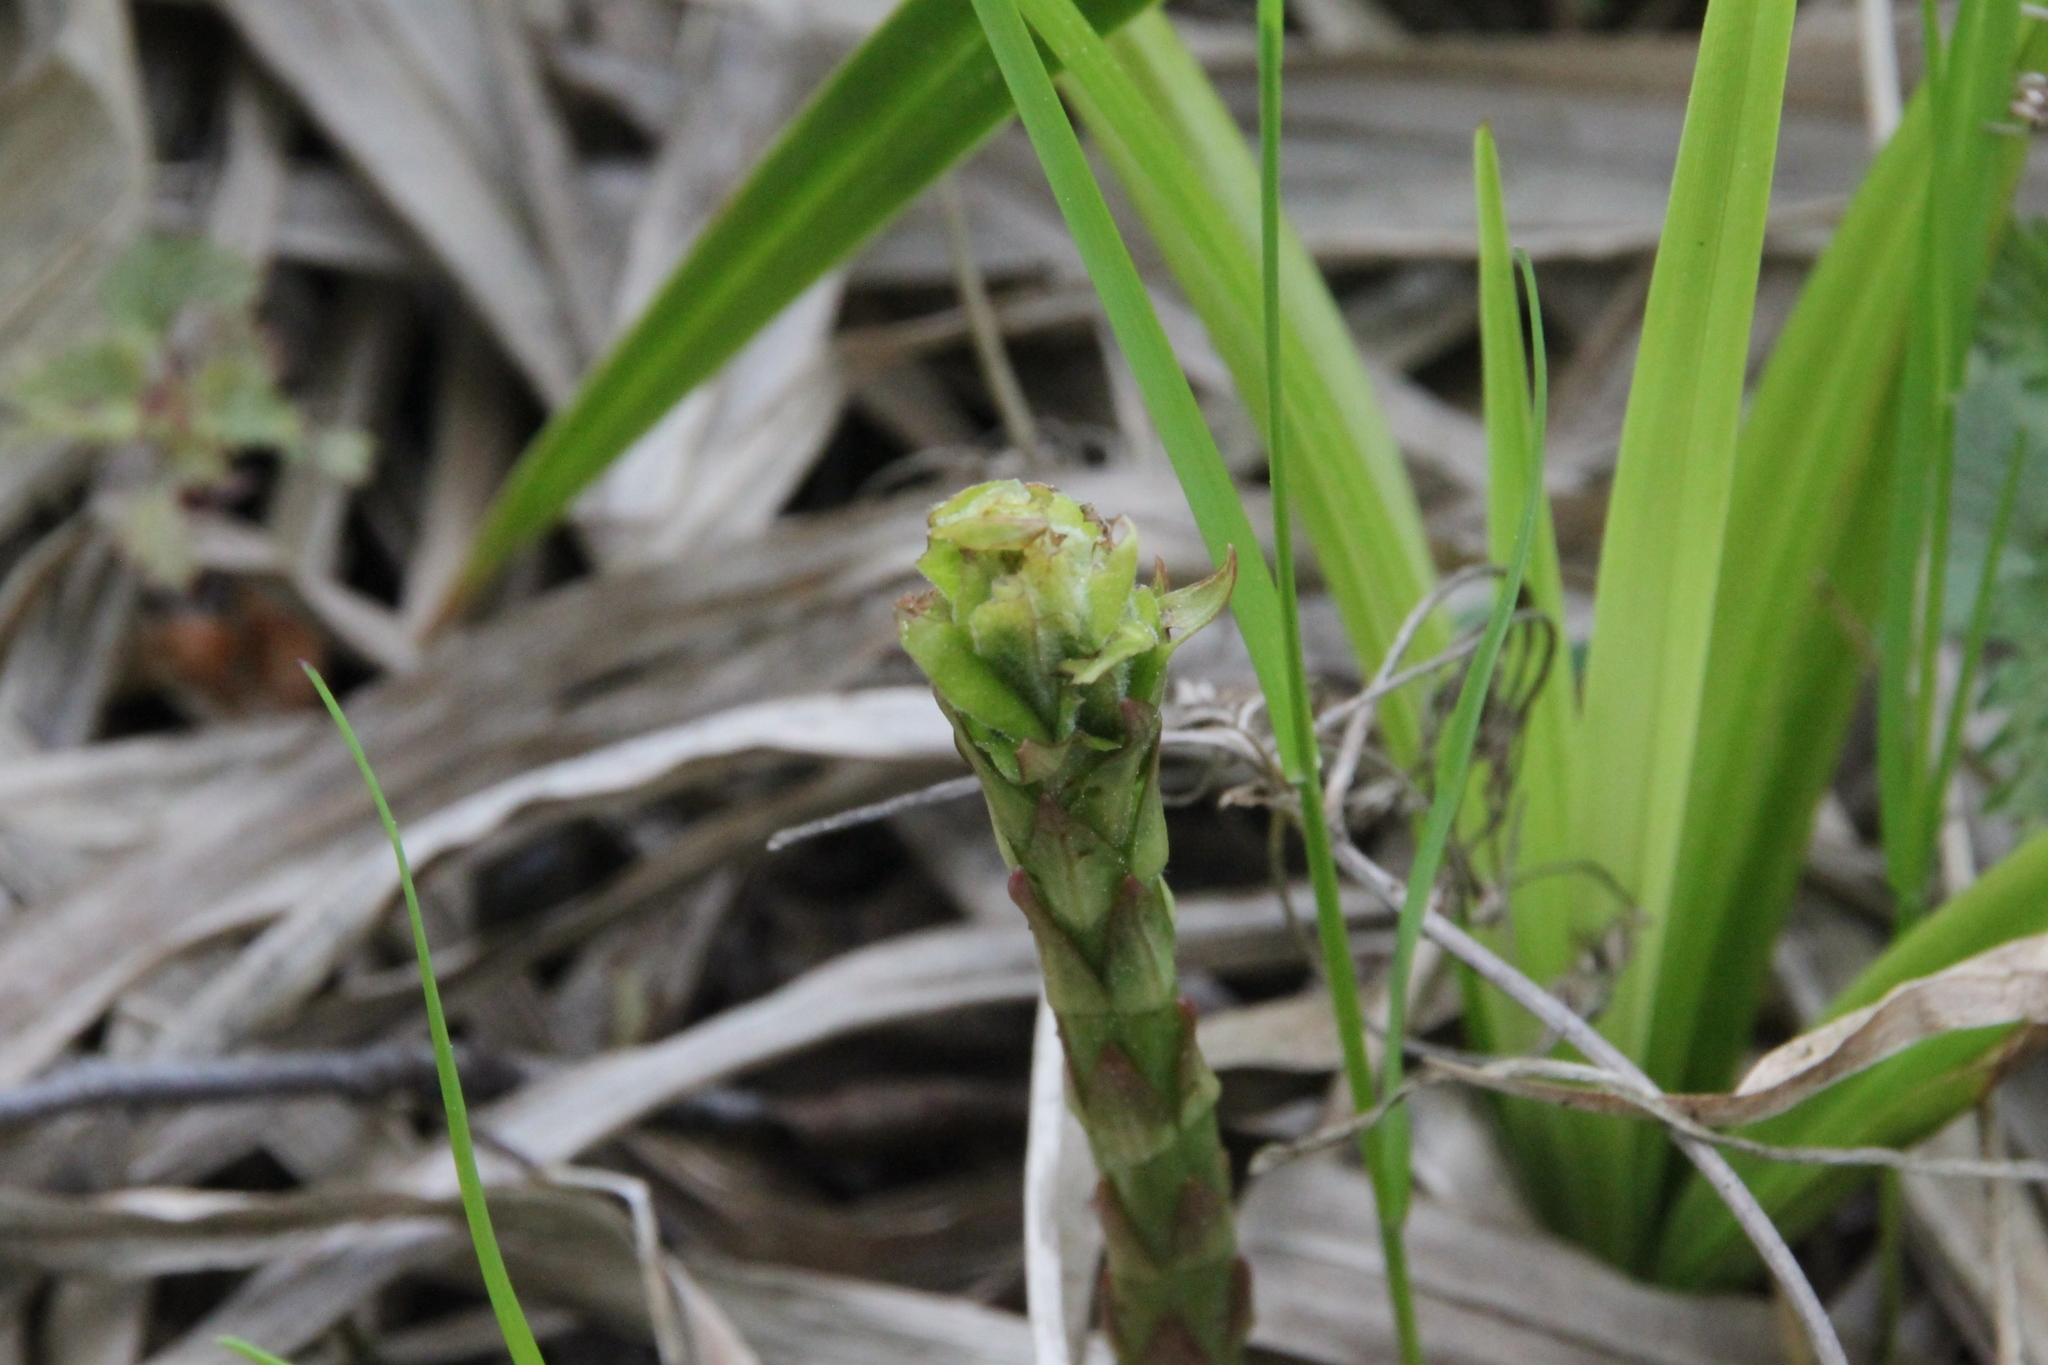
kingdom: Plantae
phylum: Tracheophyta
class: Magnoliopsida
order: Ericales
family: Primulaceae
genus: Lysimachia
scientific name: Lysimachia vulgaris
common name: Yellow loosestrife
